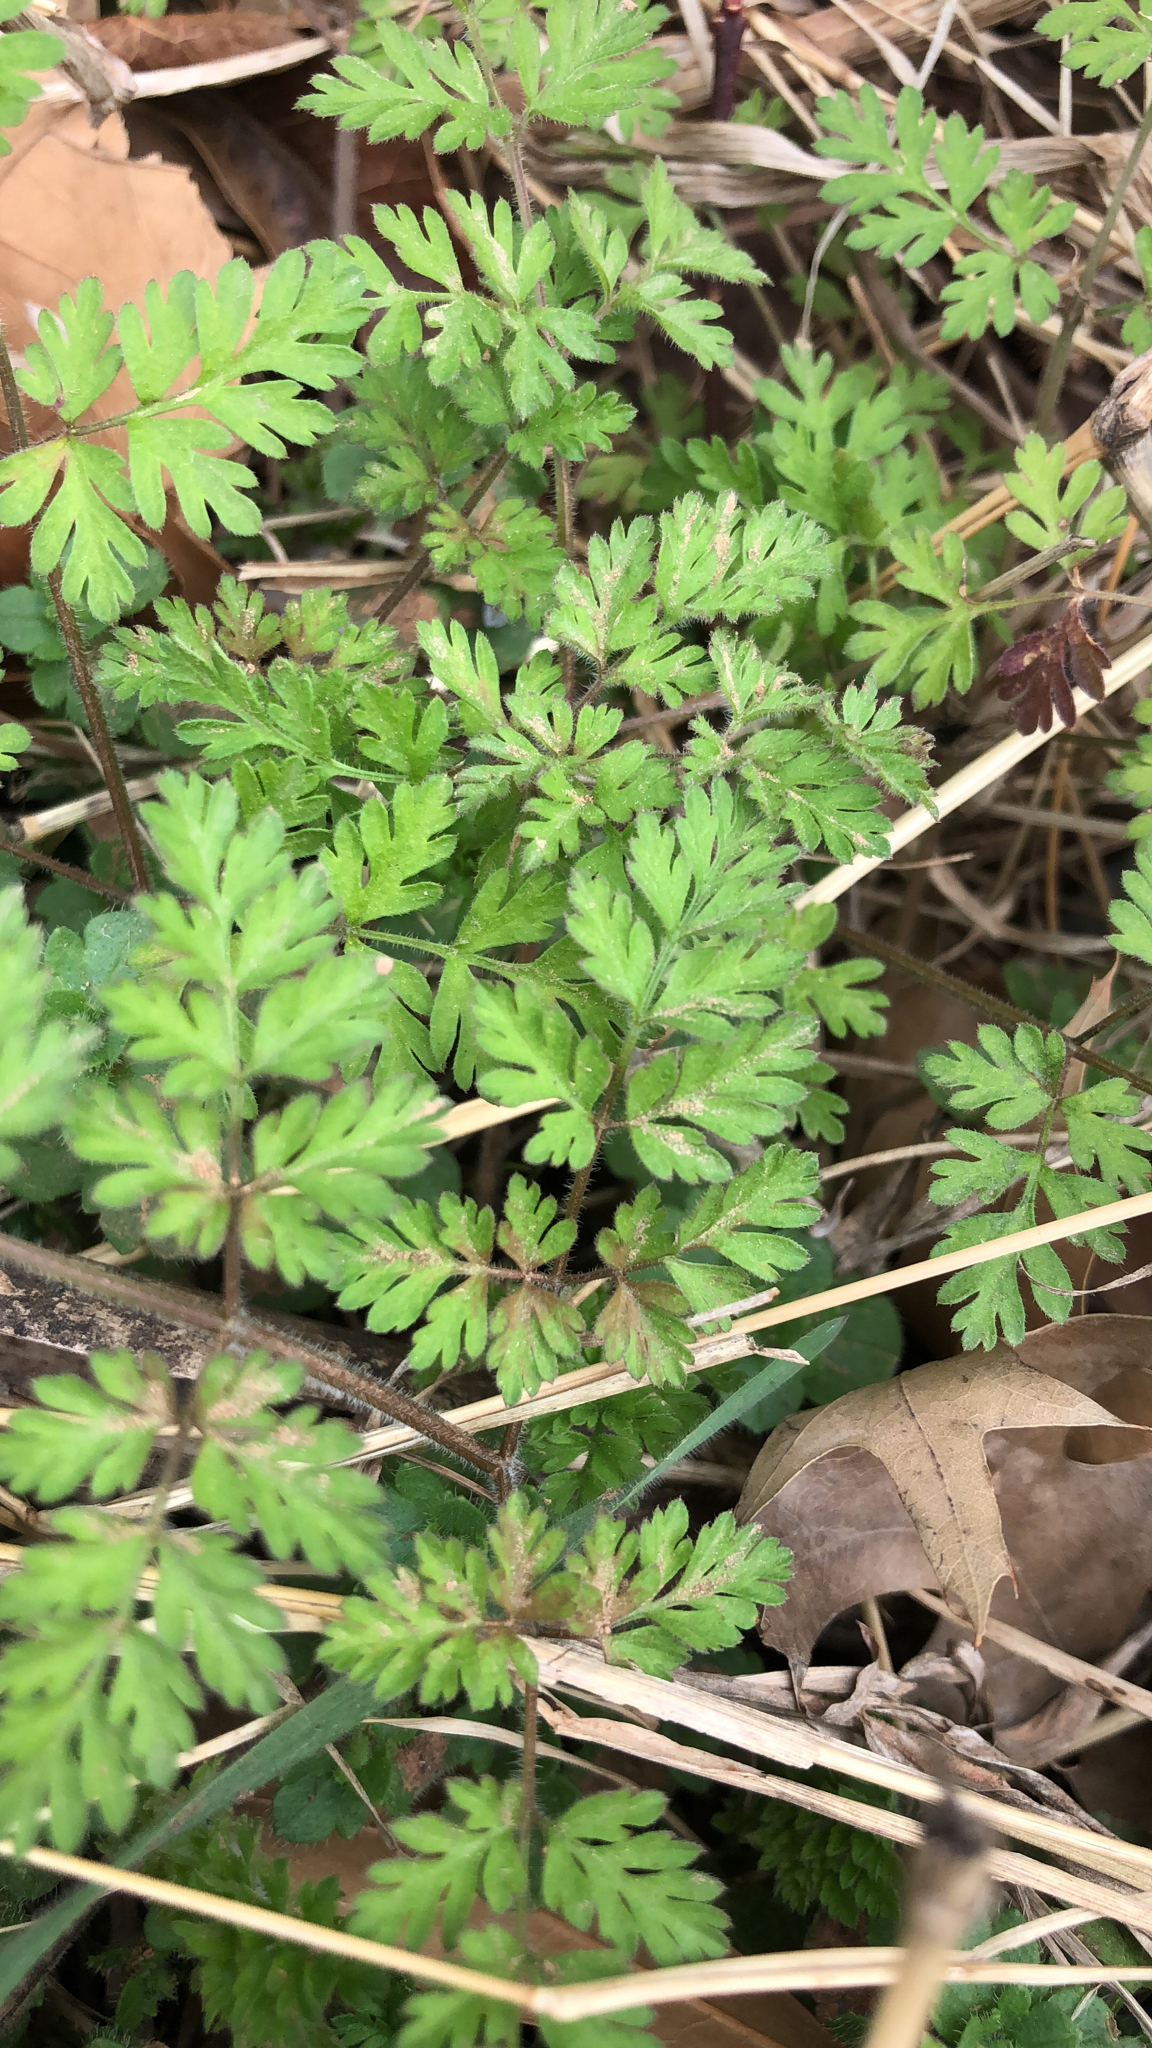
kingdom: Plantae
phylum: Tracheophyta
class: Magnoliopsida
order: Apiales
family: Apiaceae
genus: Chaerophyllum
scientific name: Chaerophyllum tainturieri
